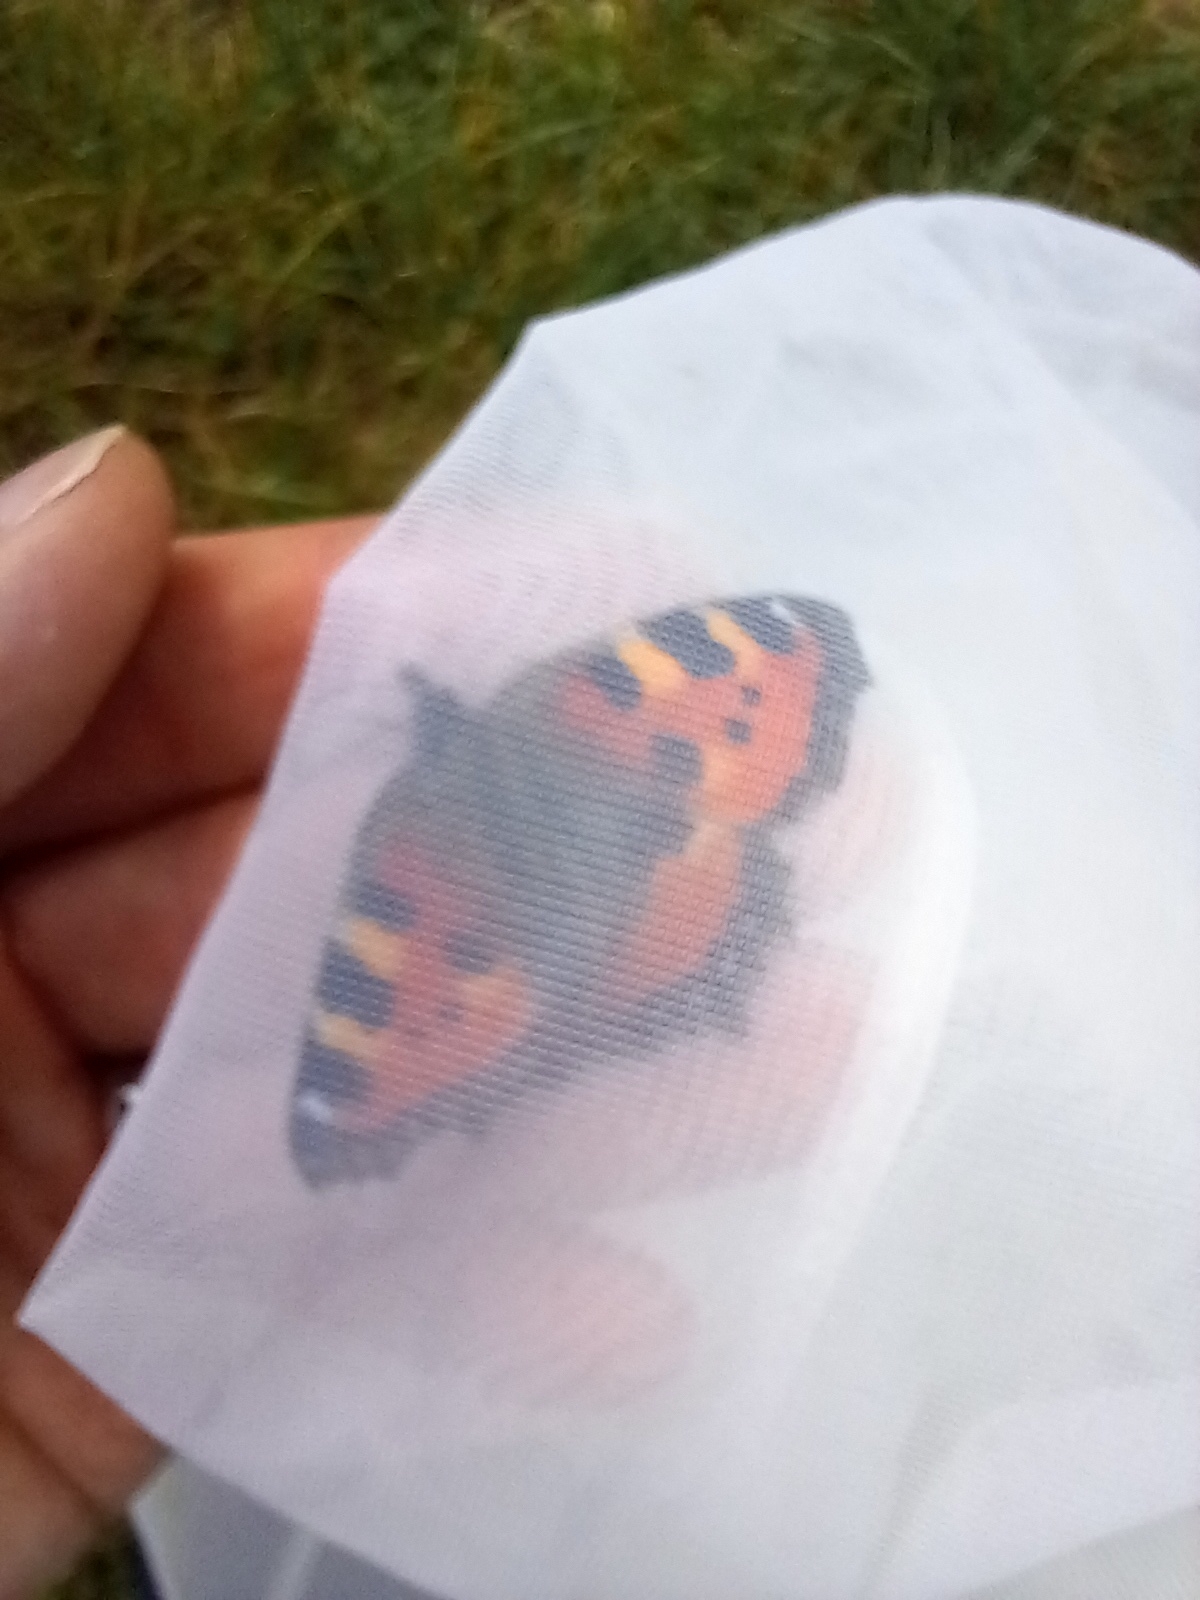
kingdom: Animalia
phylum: Arthropoda
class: Insecta
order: Lepidoptera
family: Nymphalidae
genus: Aglais
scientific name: Aglais urticae
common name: Small tortoiseshell
